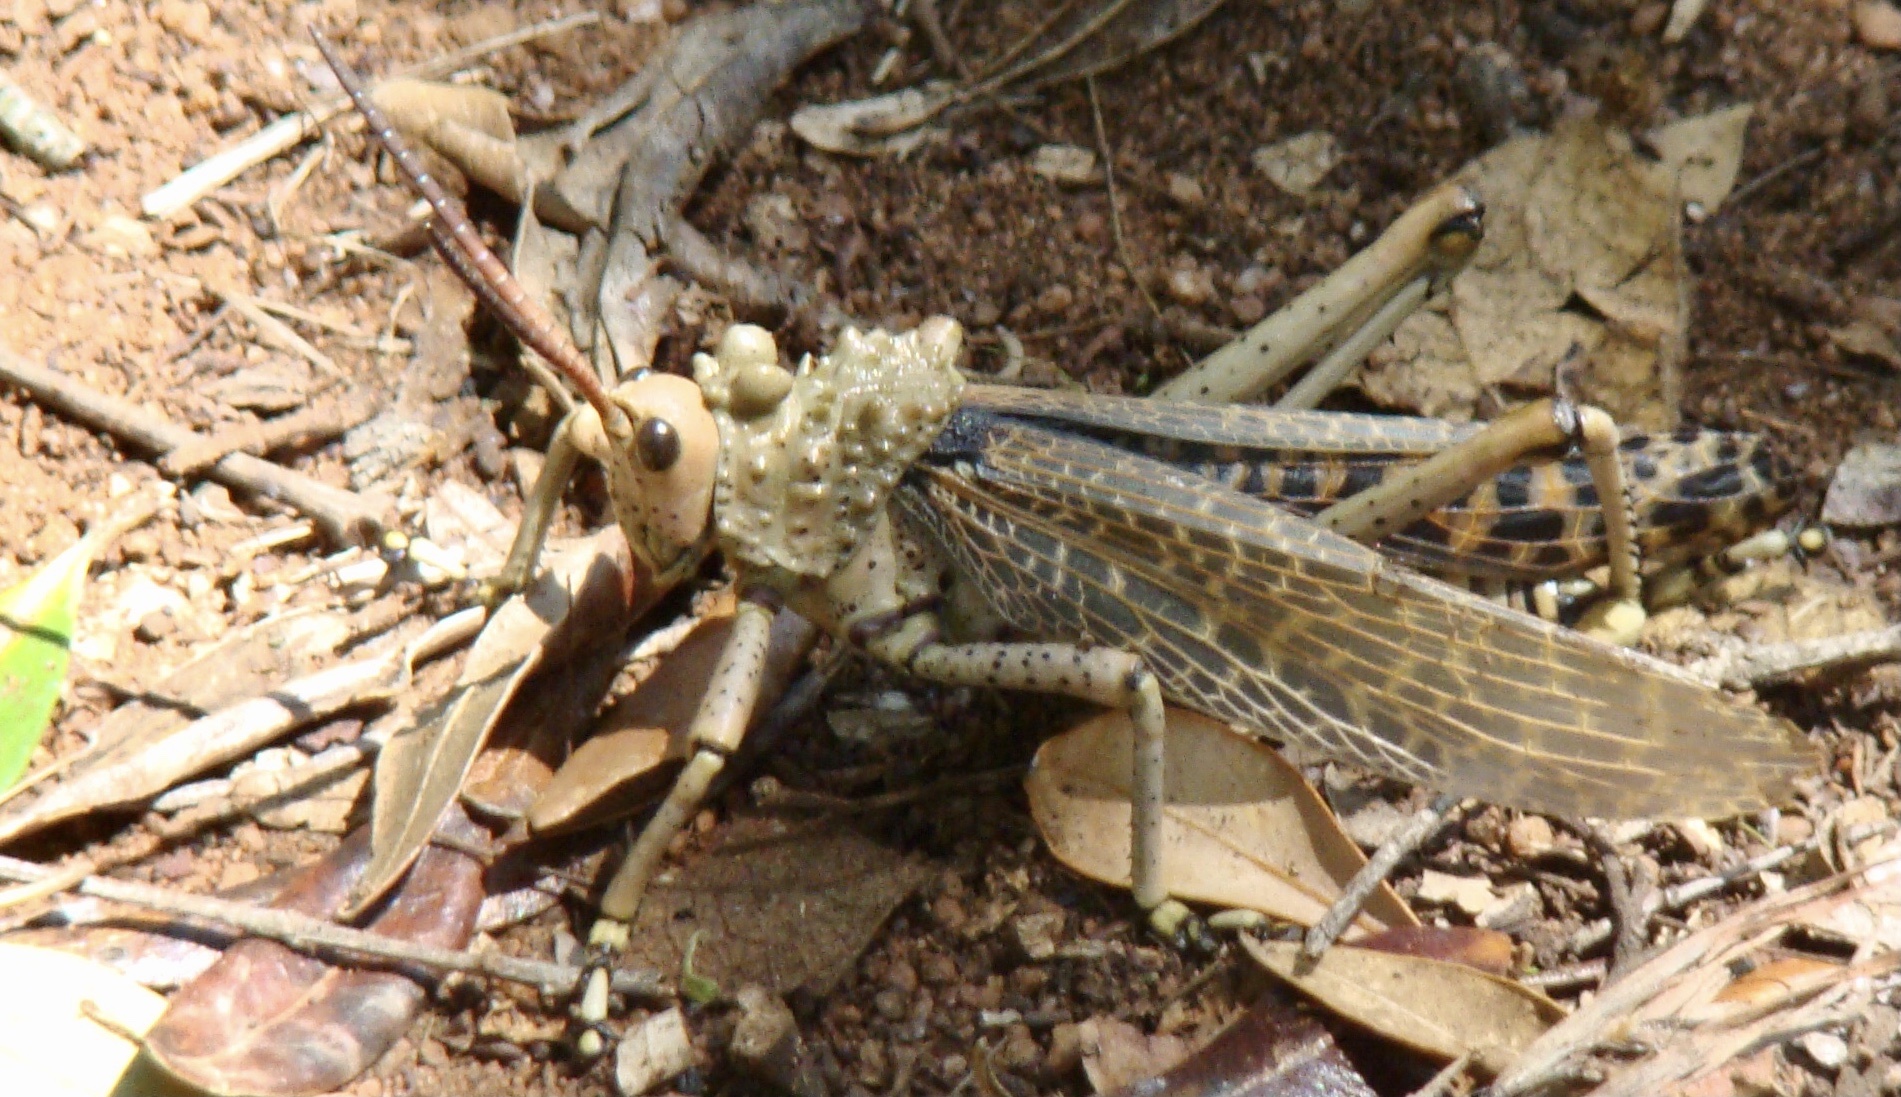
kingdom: Animalia
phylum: Arthropoda
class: Insecta
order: Orthoptera
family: Pyrgomorphidae
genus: Phymateus
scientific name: Phymateus leprosus
